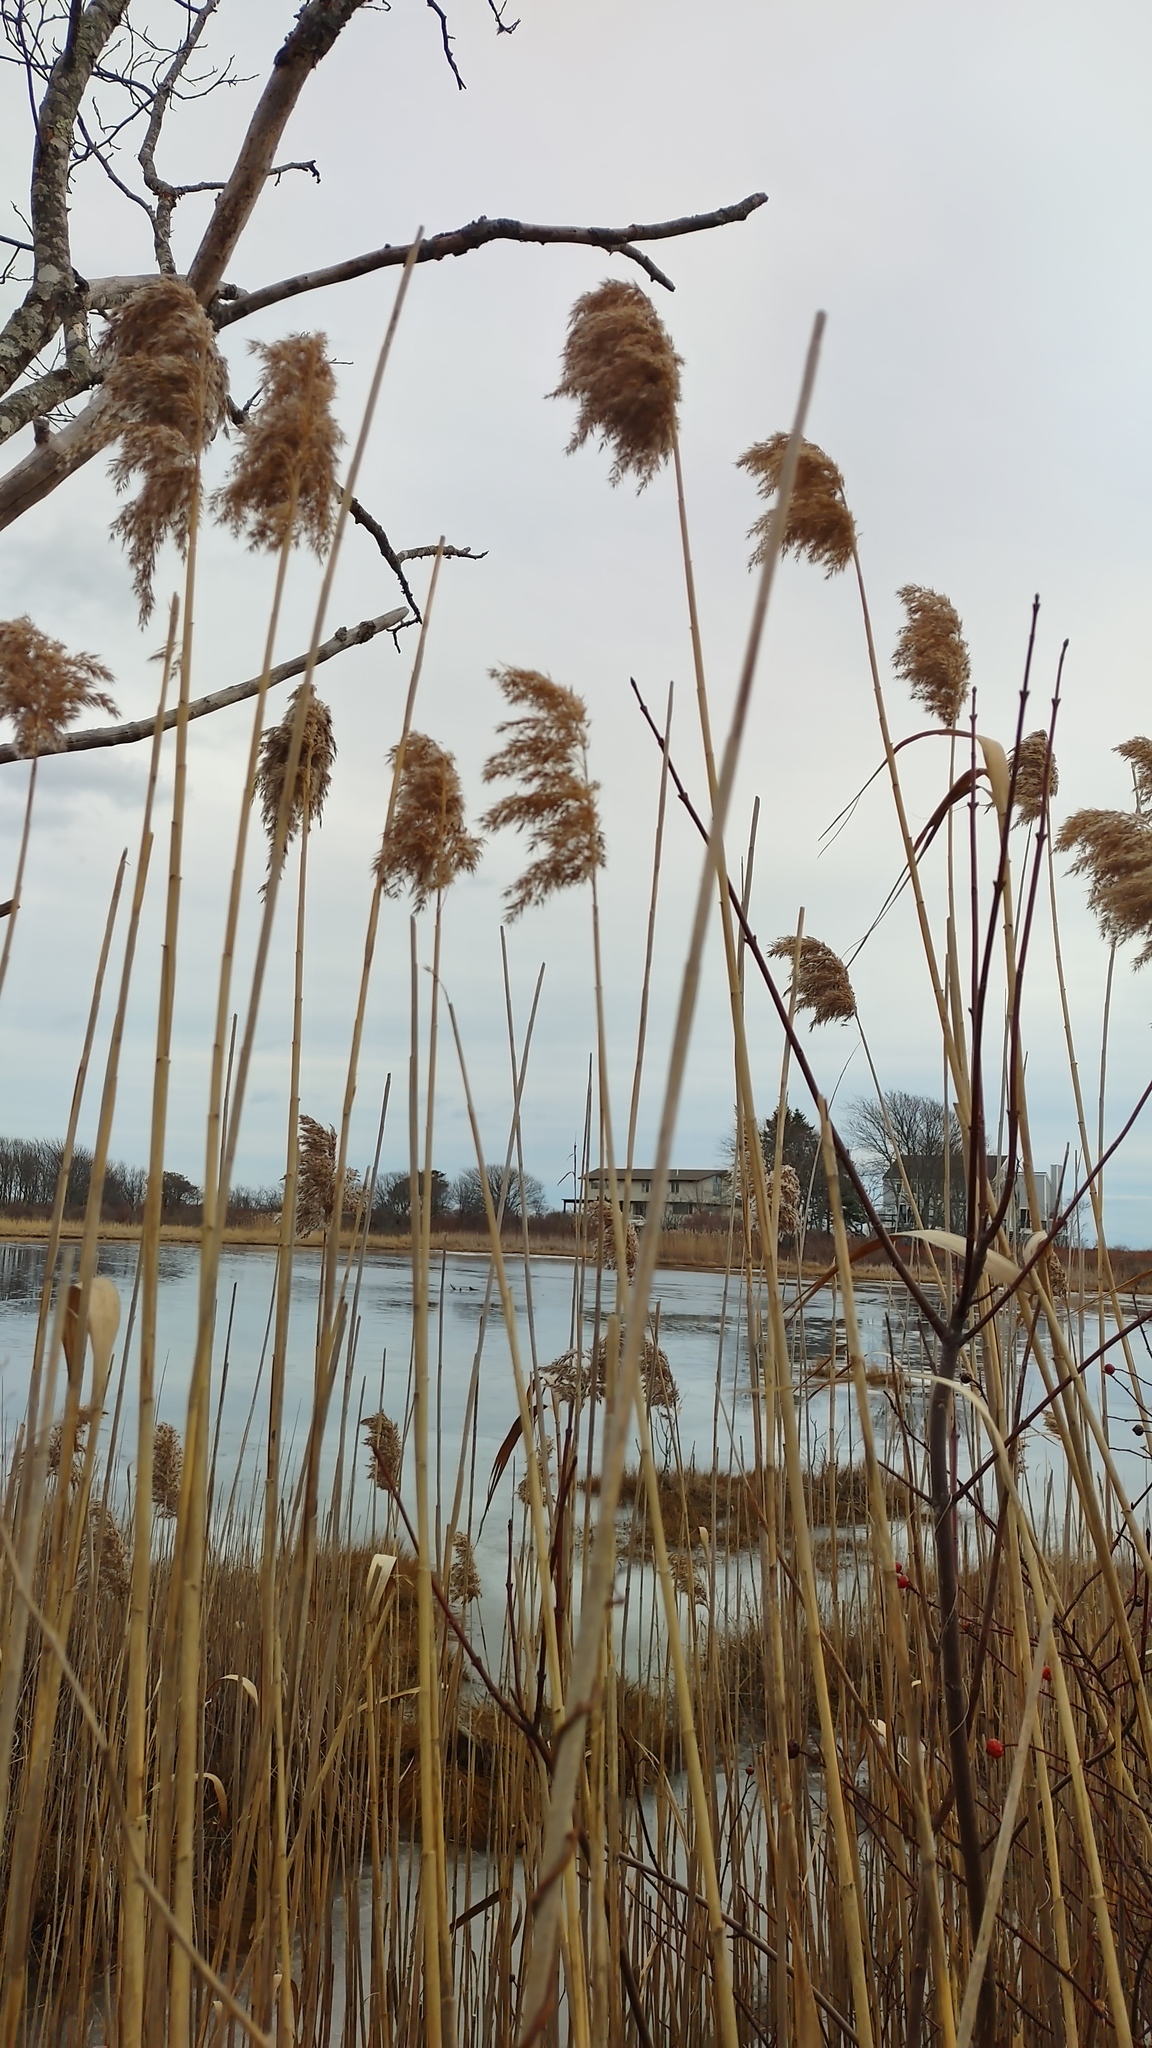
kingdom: Plantae
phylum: Tracheophyta
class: Liliopsida
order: Poales
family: Poaceae
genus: Phragmites
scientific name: Phragmites australis
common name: Common reed
